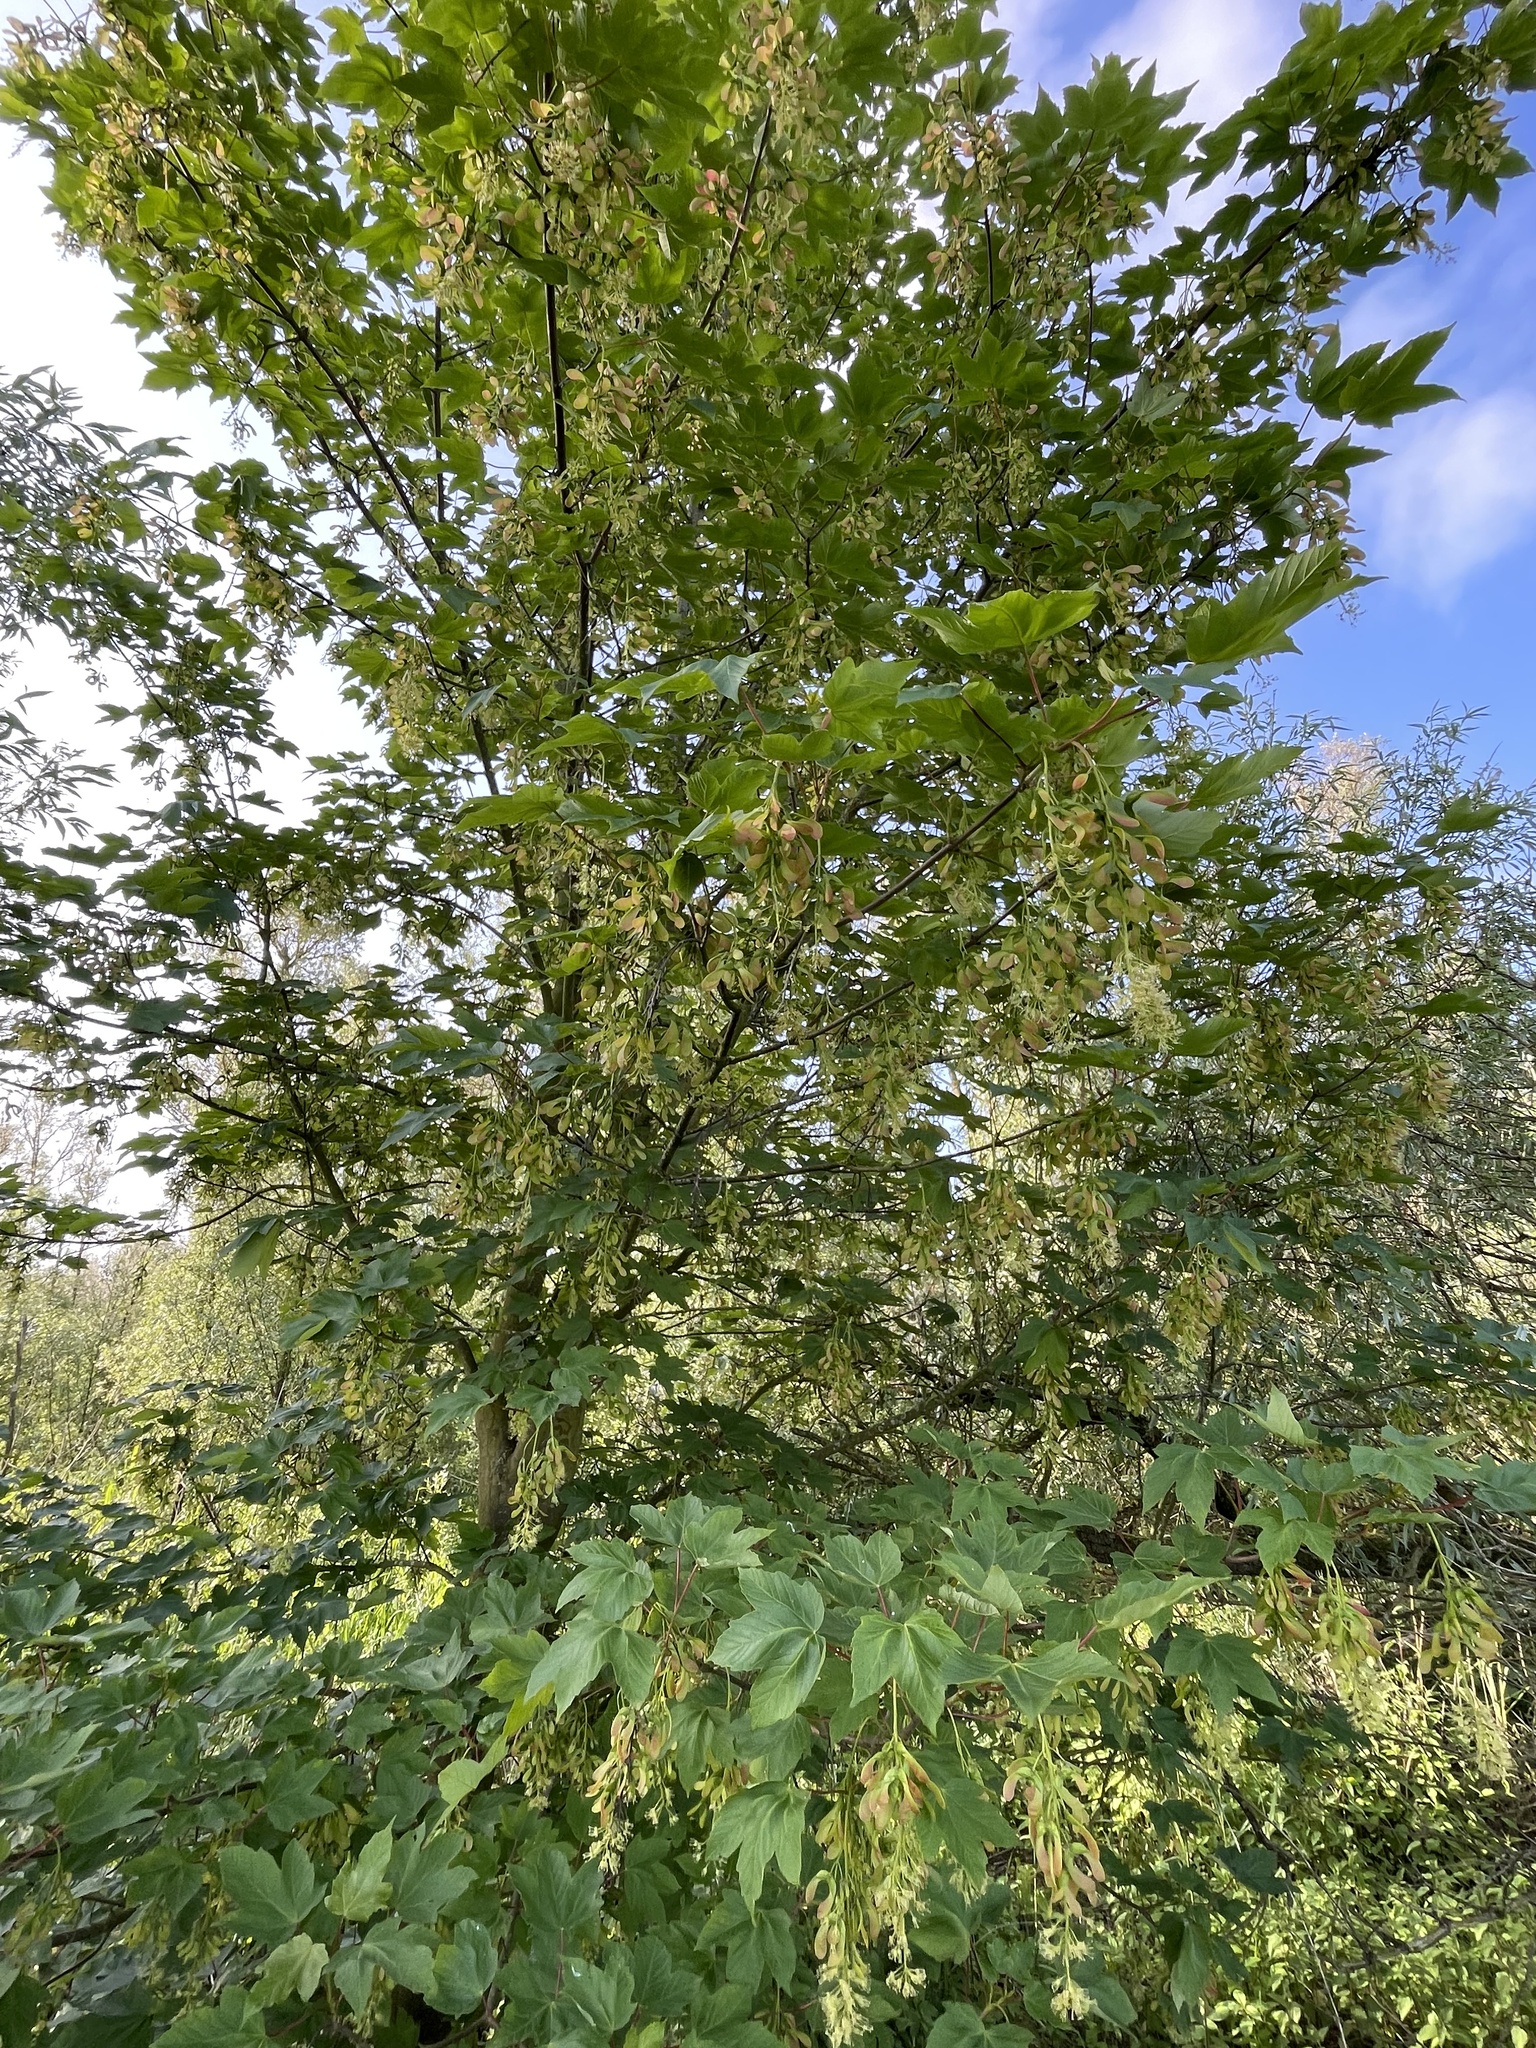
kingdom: Plantae
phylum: Tracheophyta
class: Magnoliopsida
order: Sapindales
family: Sapindaceae
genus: Acer
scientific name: Acer pseudoplatanus
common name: Sycamore
